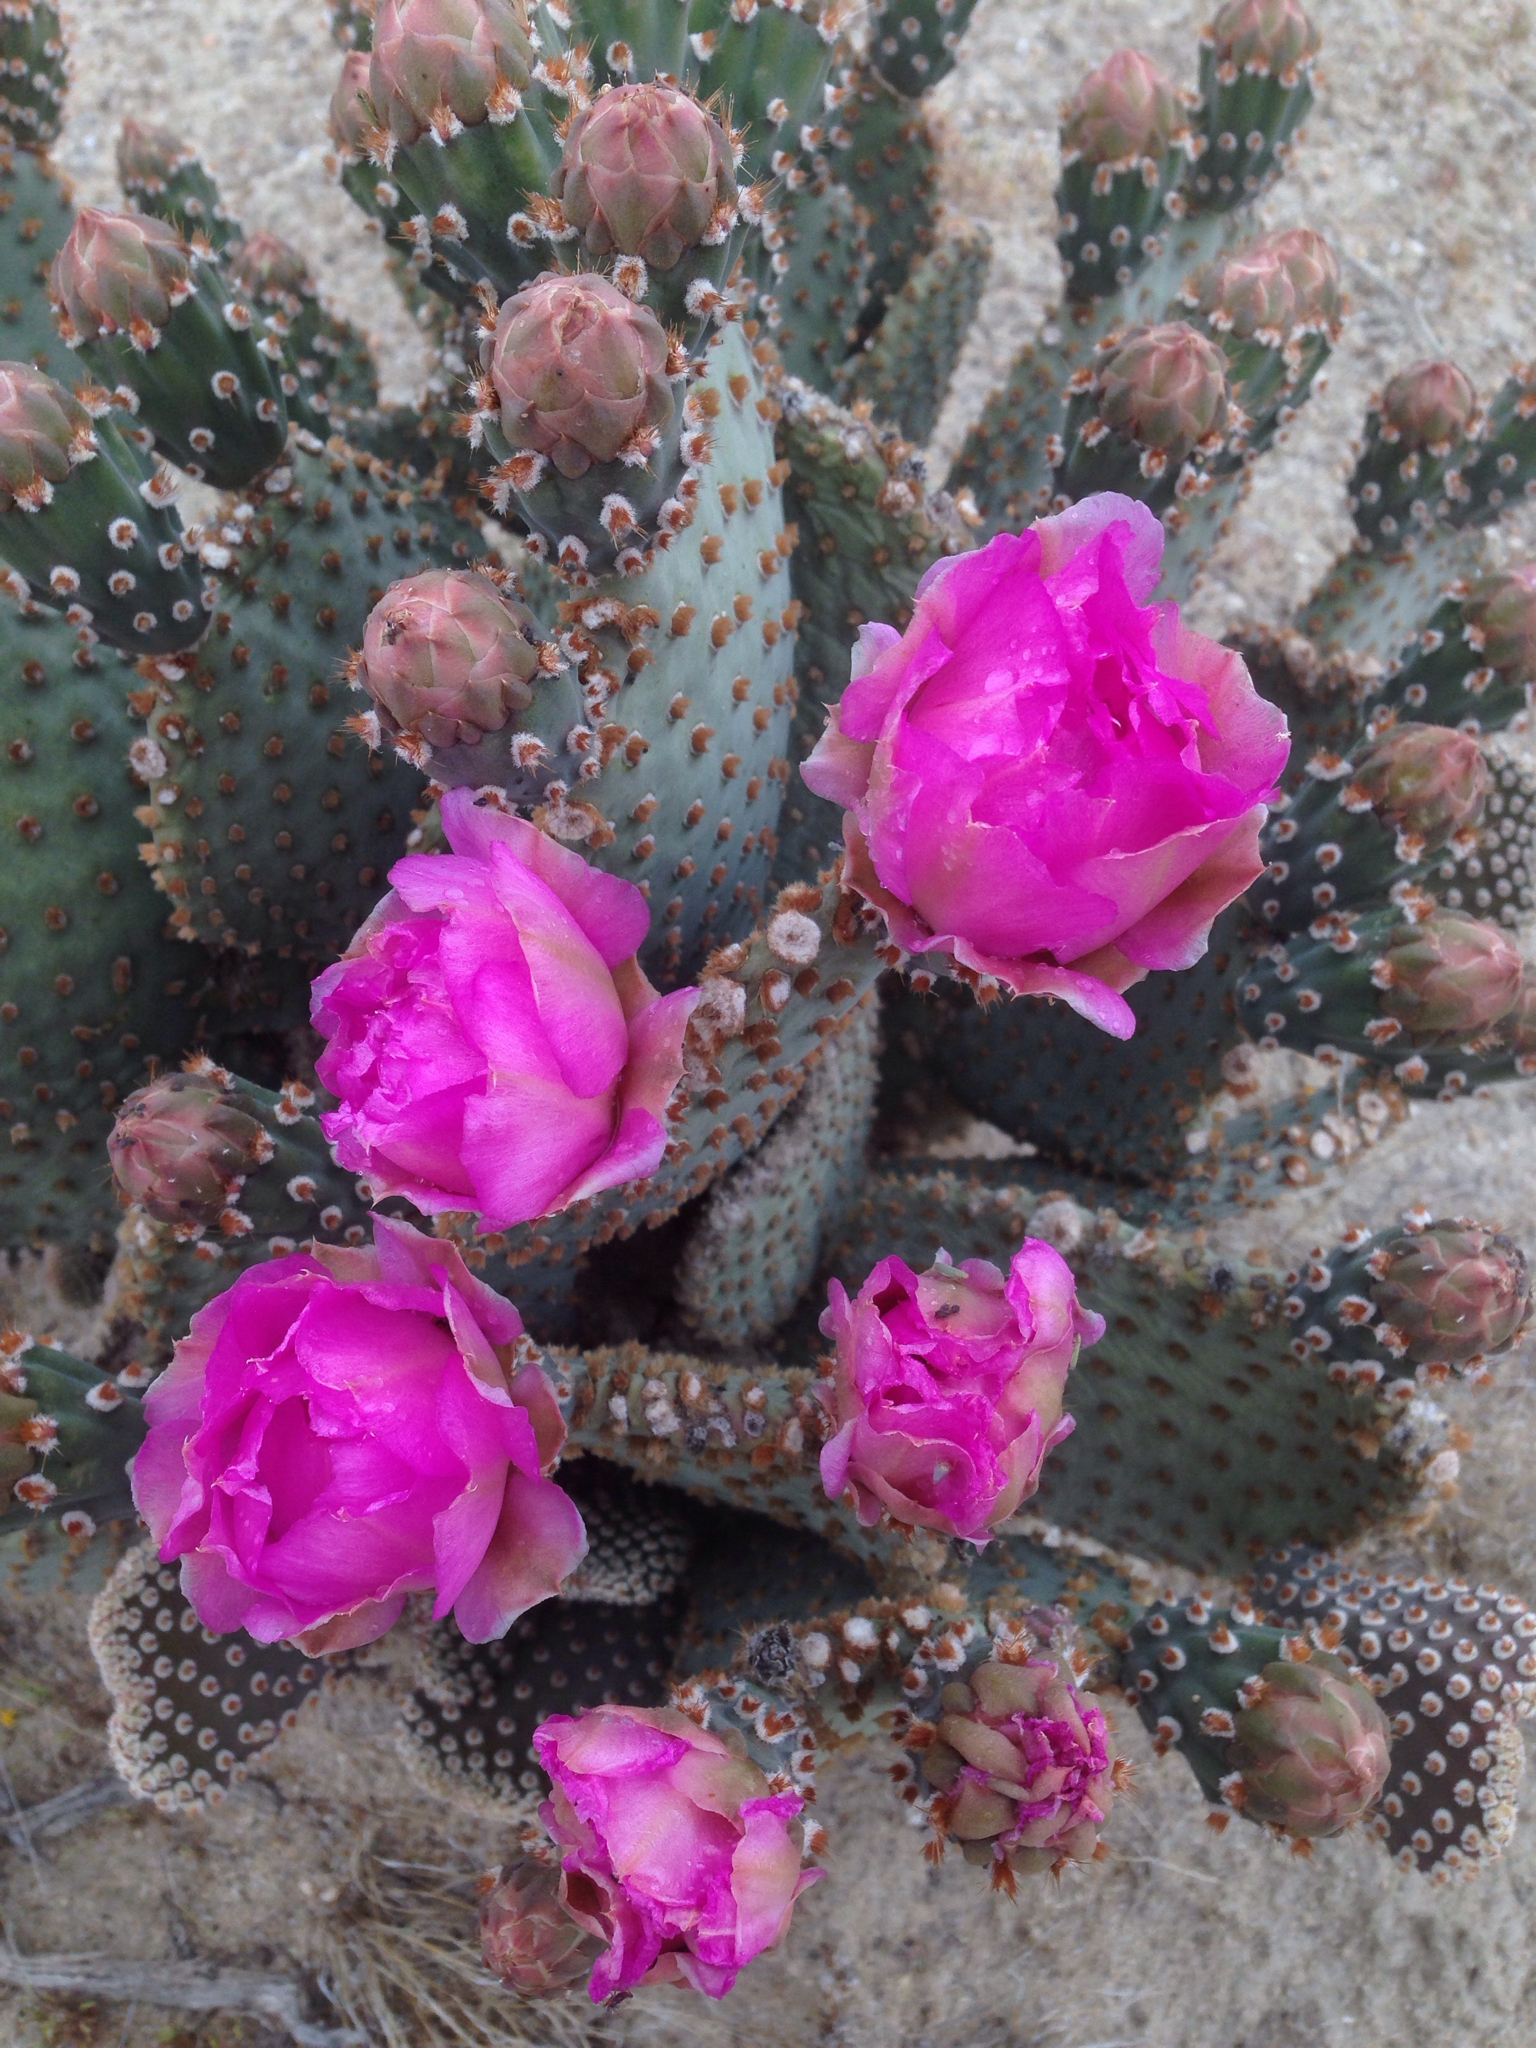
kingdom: Plantae
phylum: Tracheophyta
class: Magnoliopsida
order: Caryophyllales
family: Cactaceae
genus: Opuntia
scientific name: Opuntia basilaris
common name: Beavertail prickly-pear
